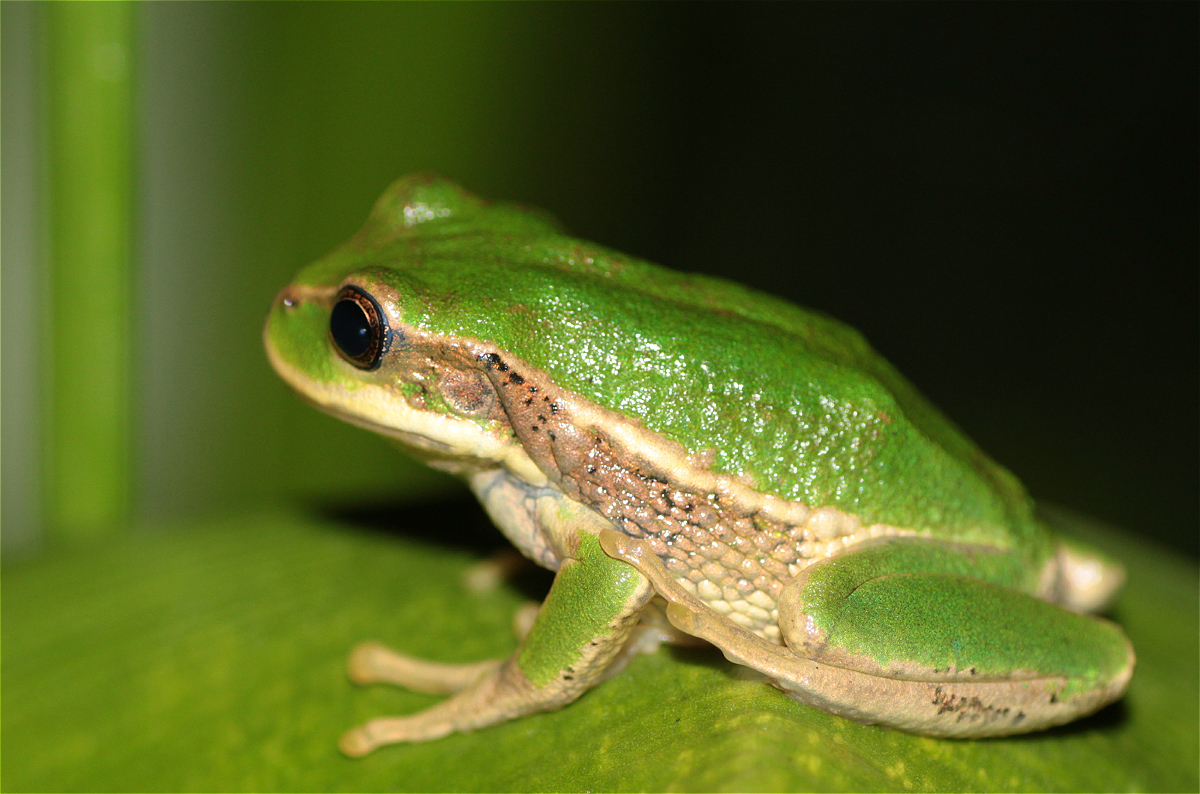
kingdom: Animalia
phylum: Chordata
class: Amphibia
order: Anura
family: Hemiphractidae
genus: Gastrotheca
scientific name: Gastrotheca cuencana
